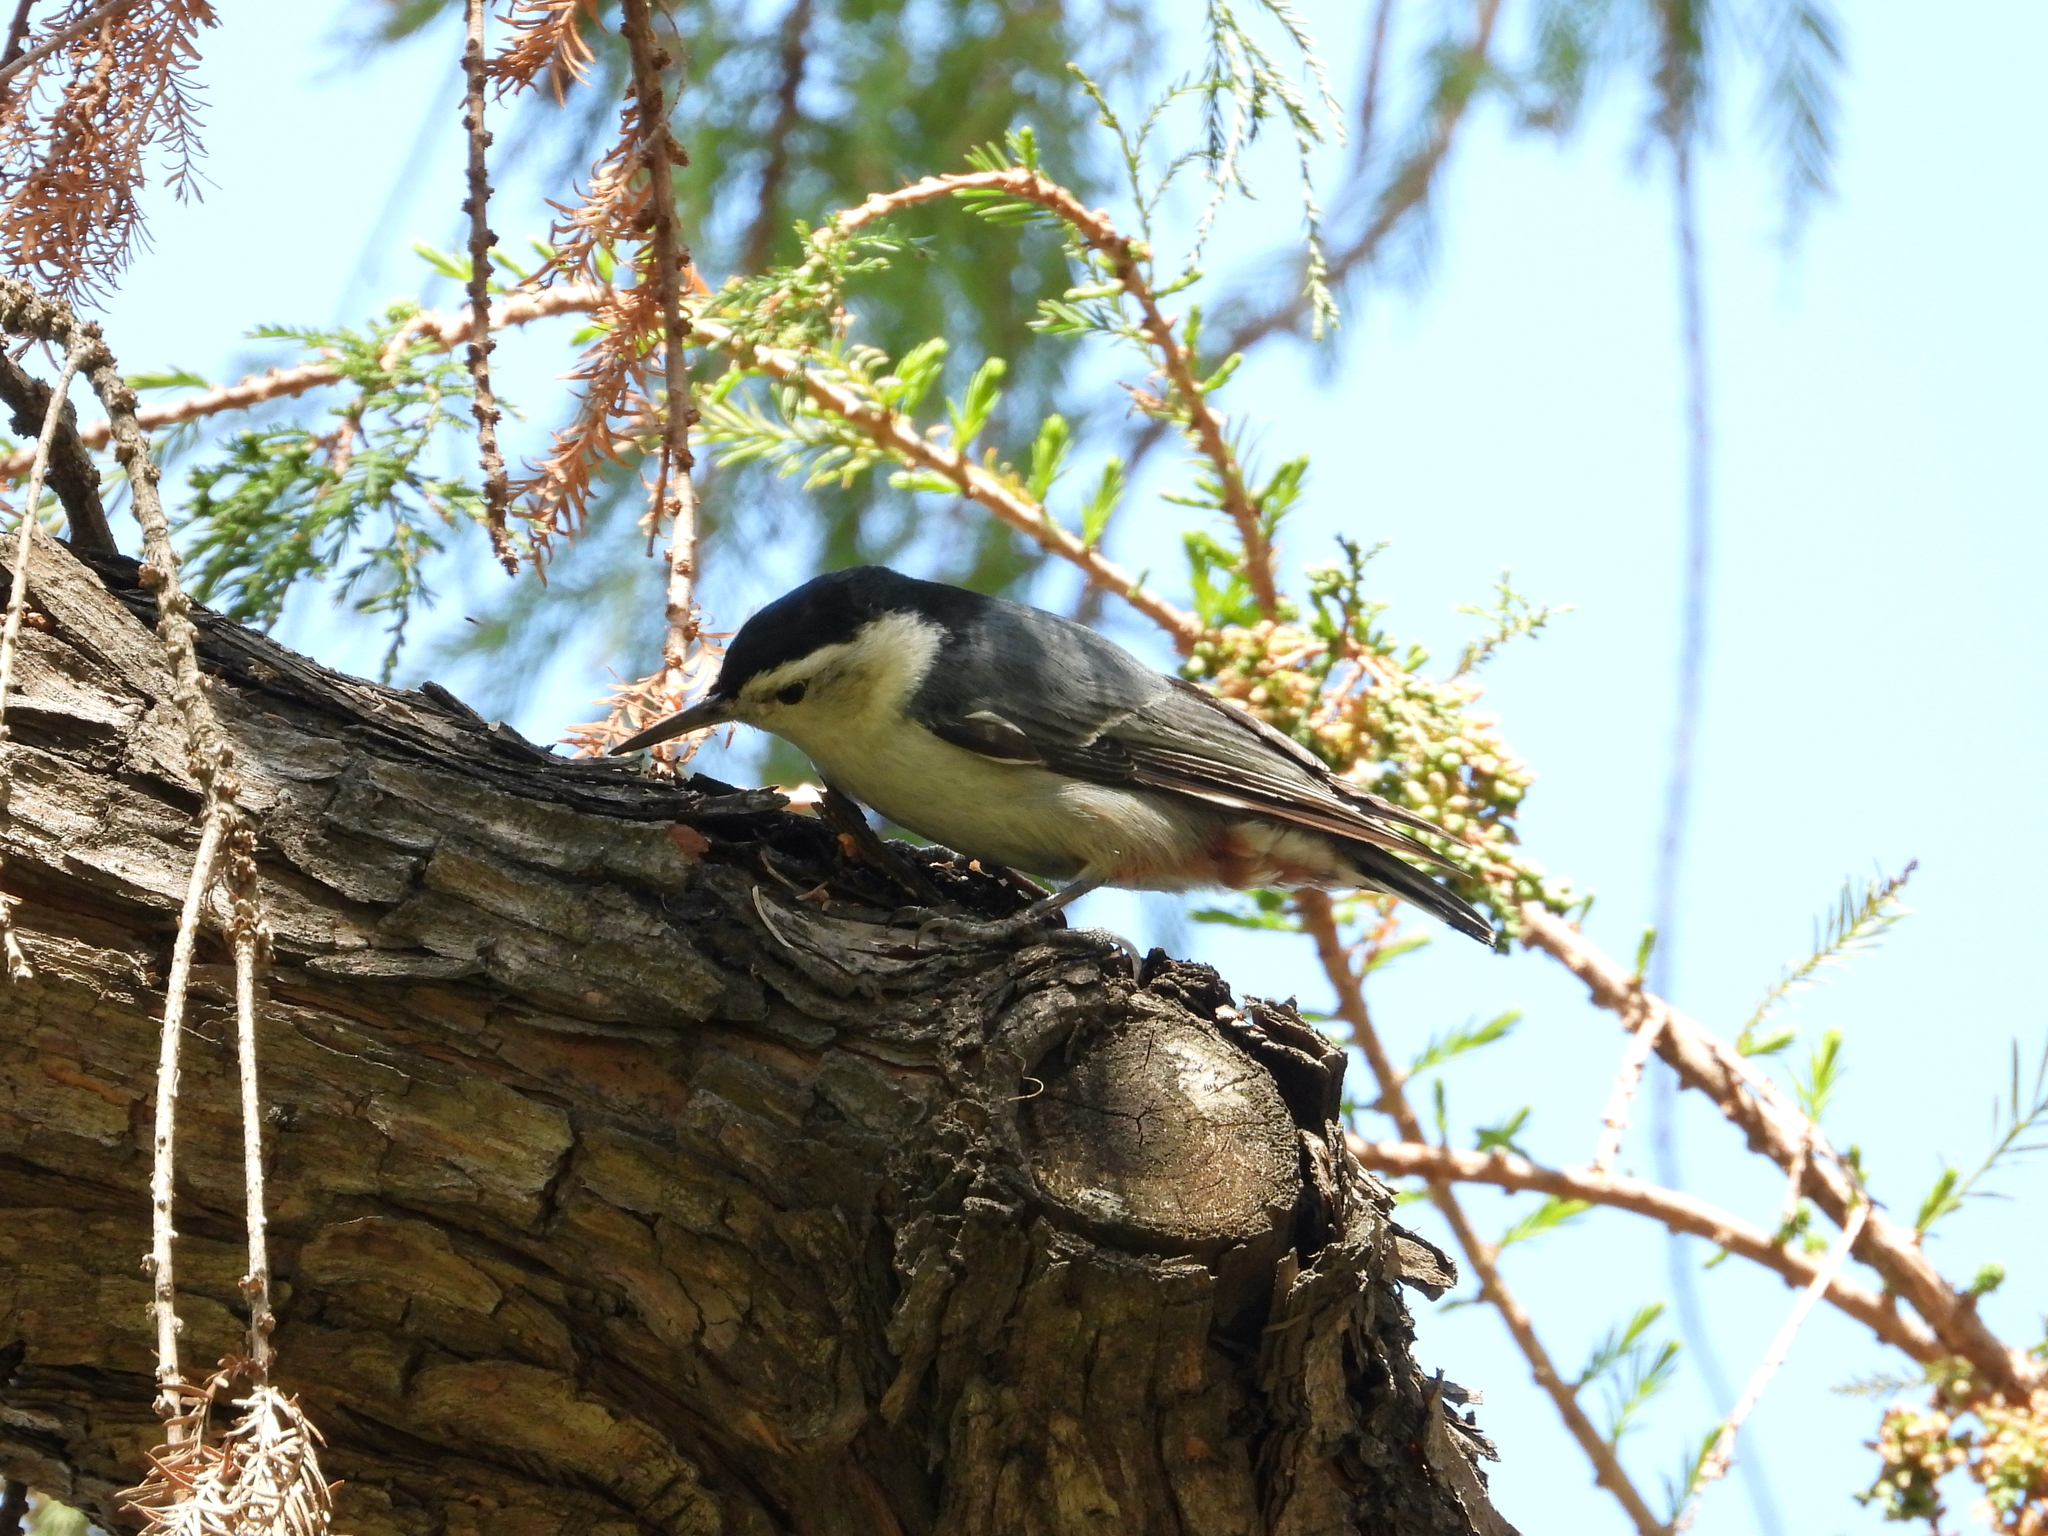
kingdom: Animalia
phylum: Chordata
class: Aves
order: Passeriformes
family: Sittidae
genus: Sitta
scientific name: Sitta carolinensis
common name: White-breasted nuthatch
